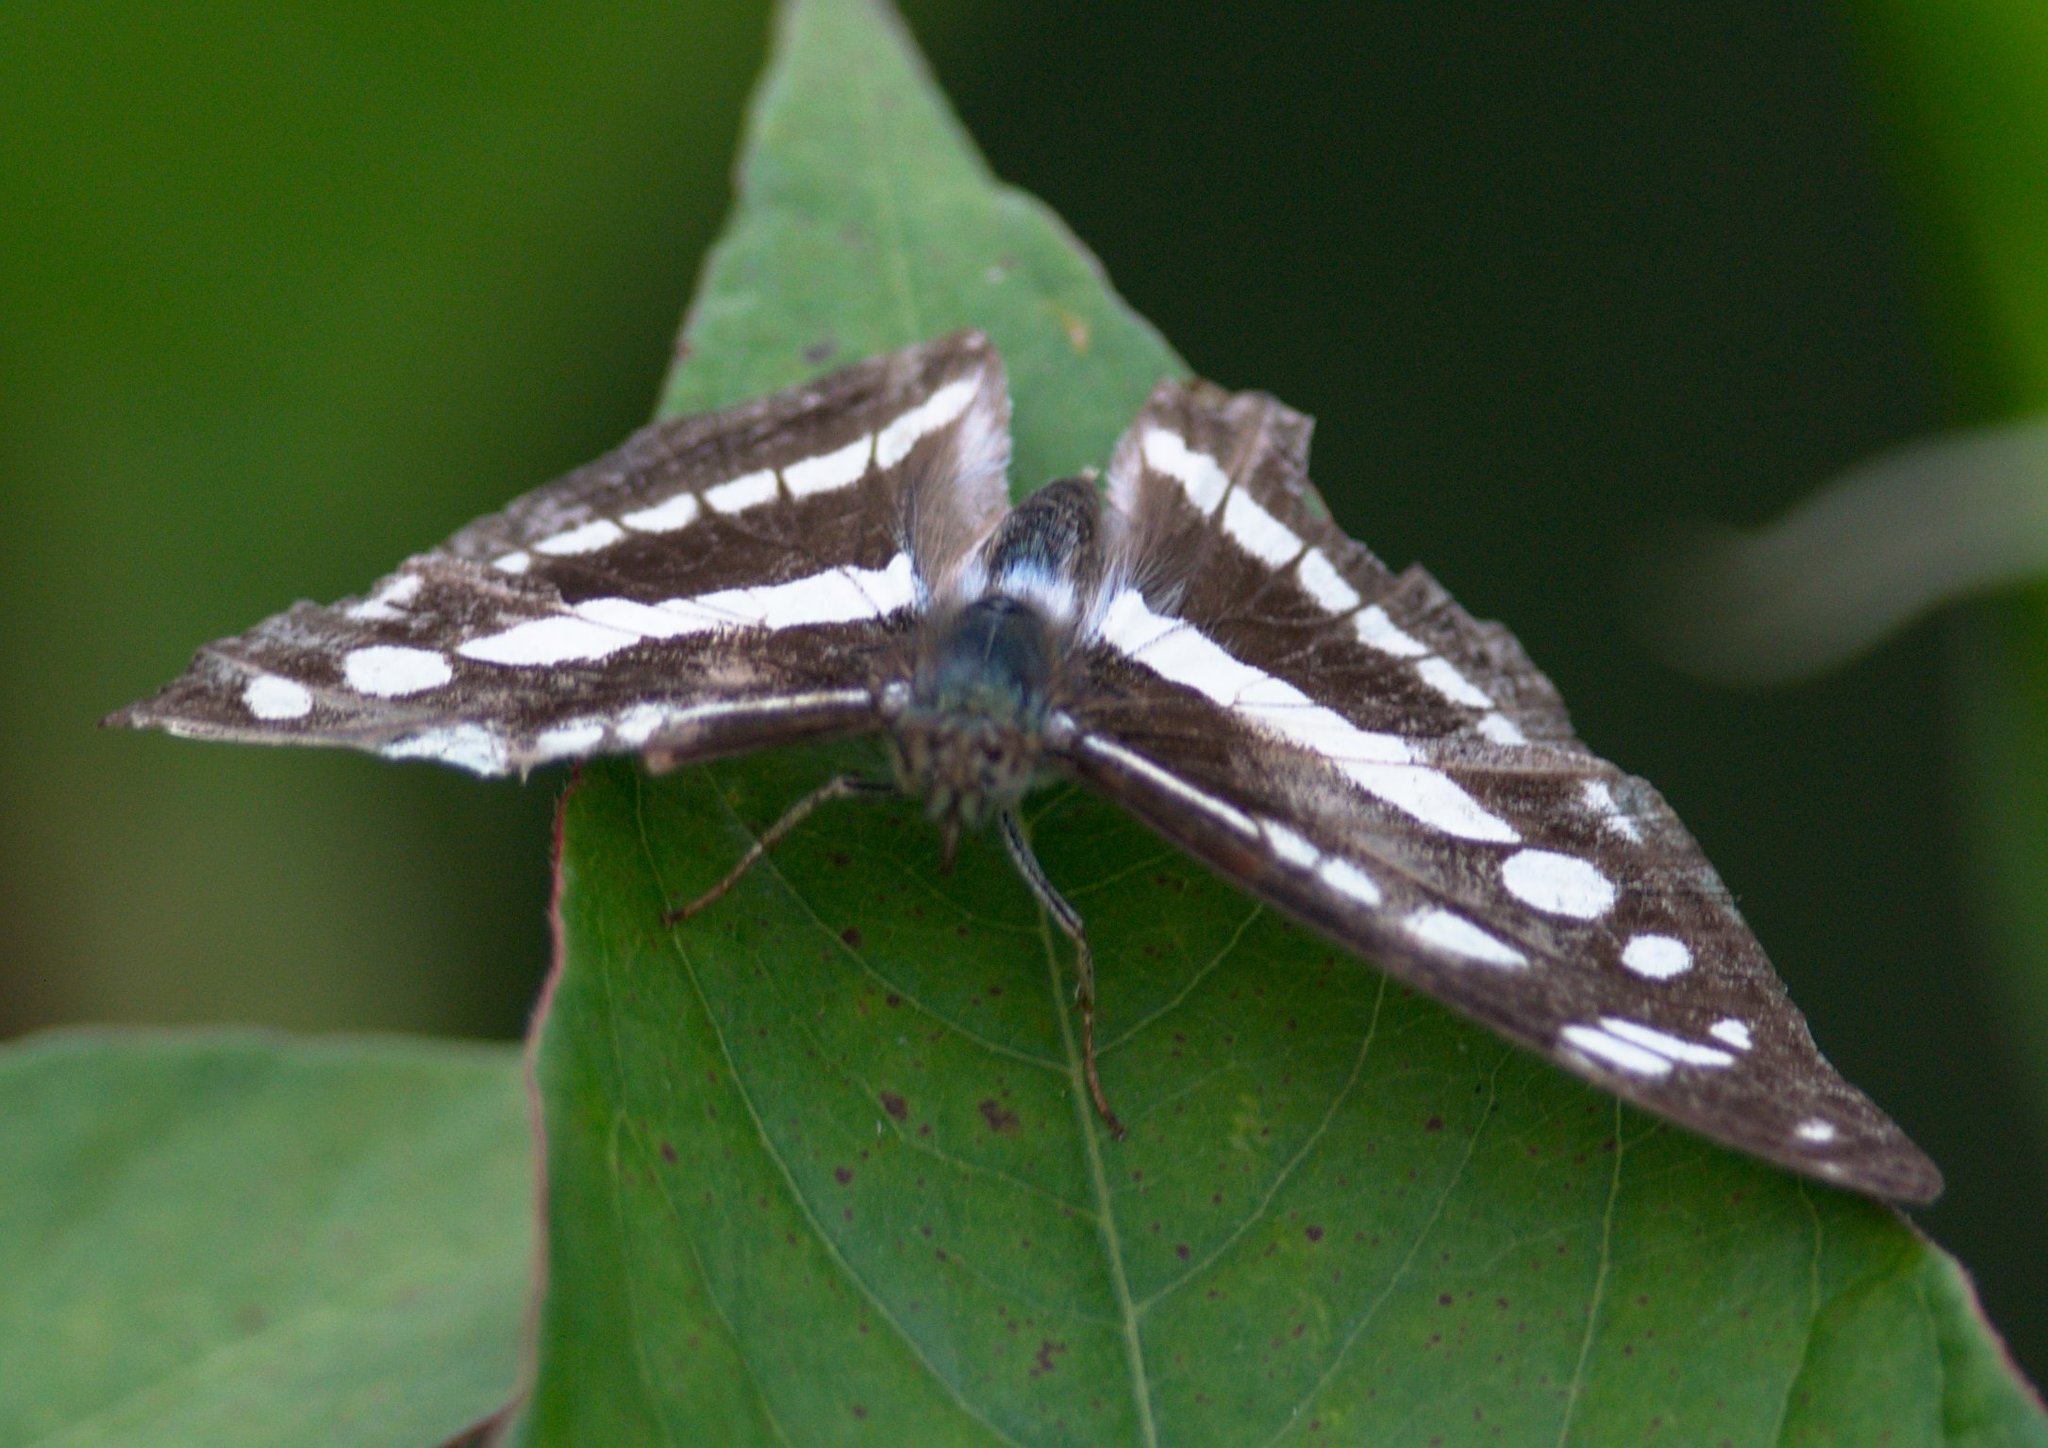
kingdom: Animalia
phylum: Arthropoda
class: Insecta
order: Lepidoptera
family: Nymphalidae
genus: Parathyma
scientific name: Parathyma opalina
